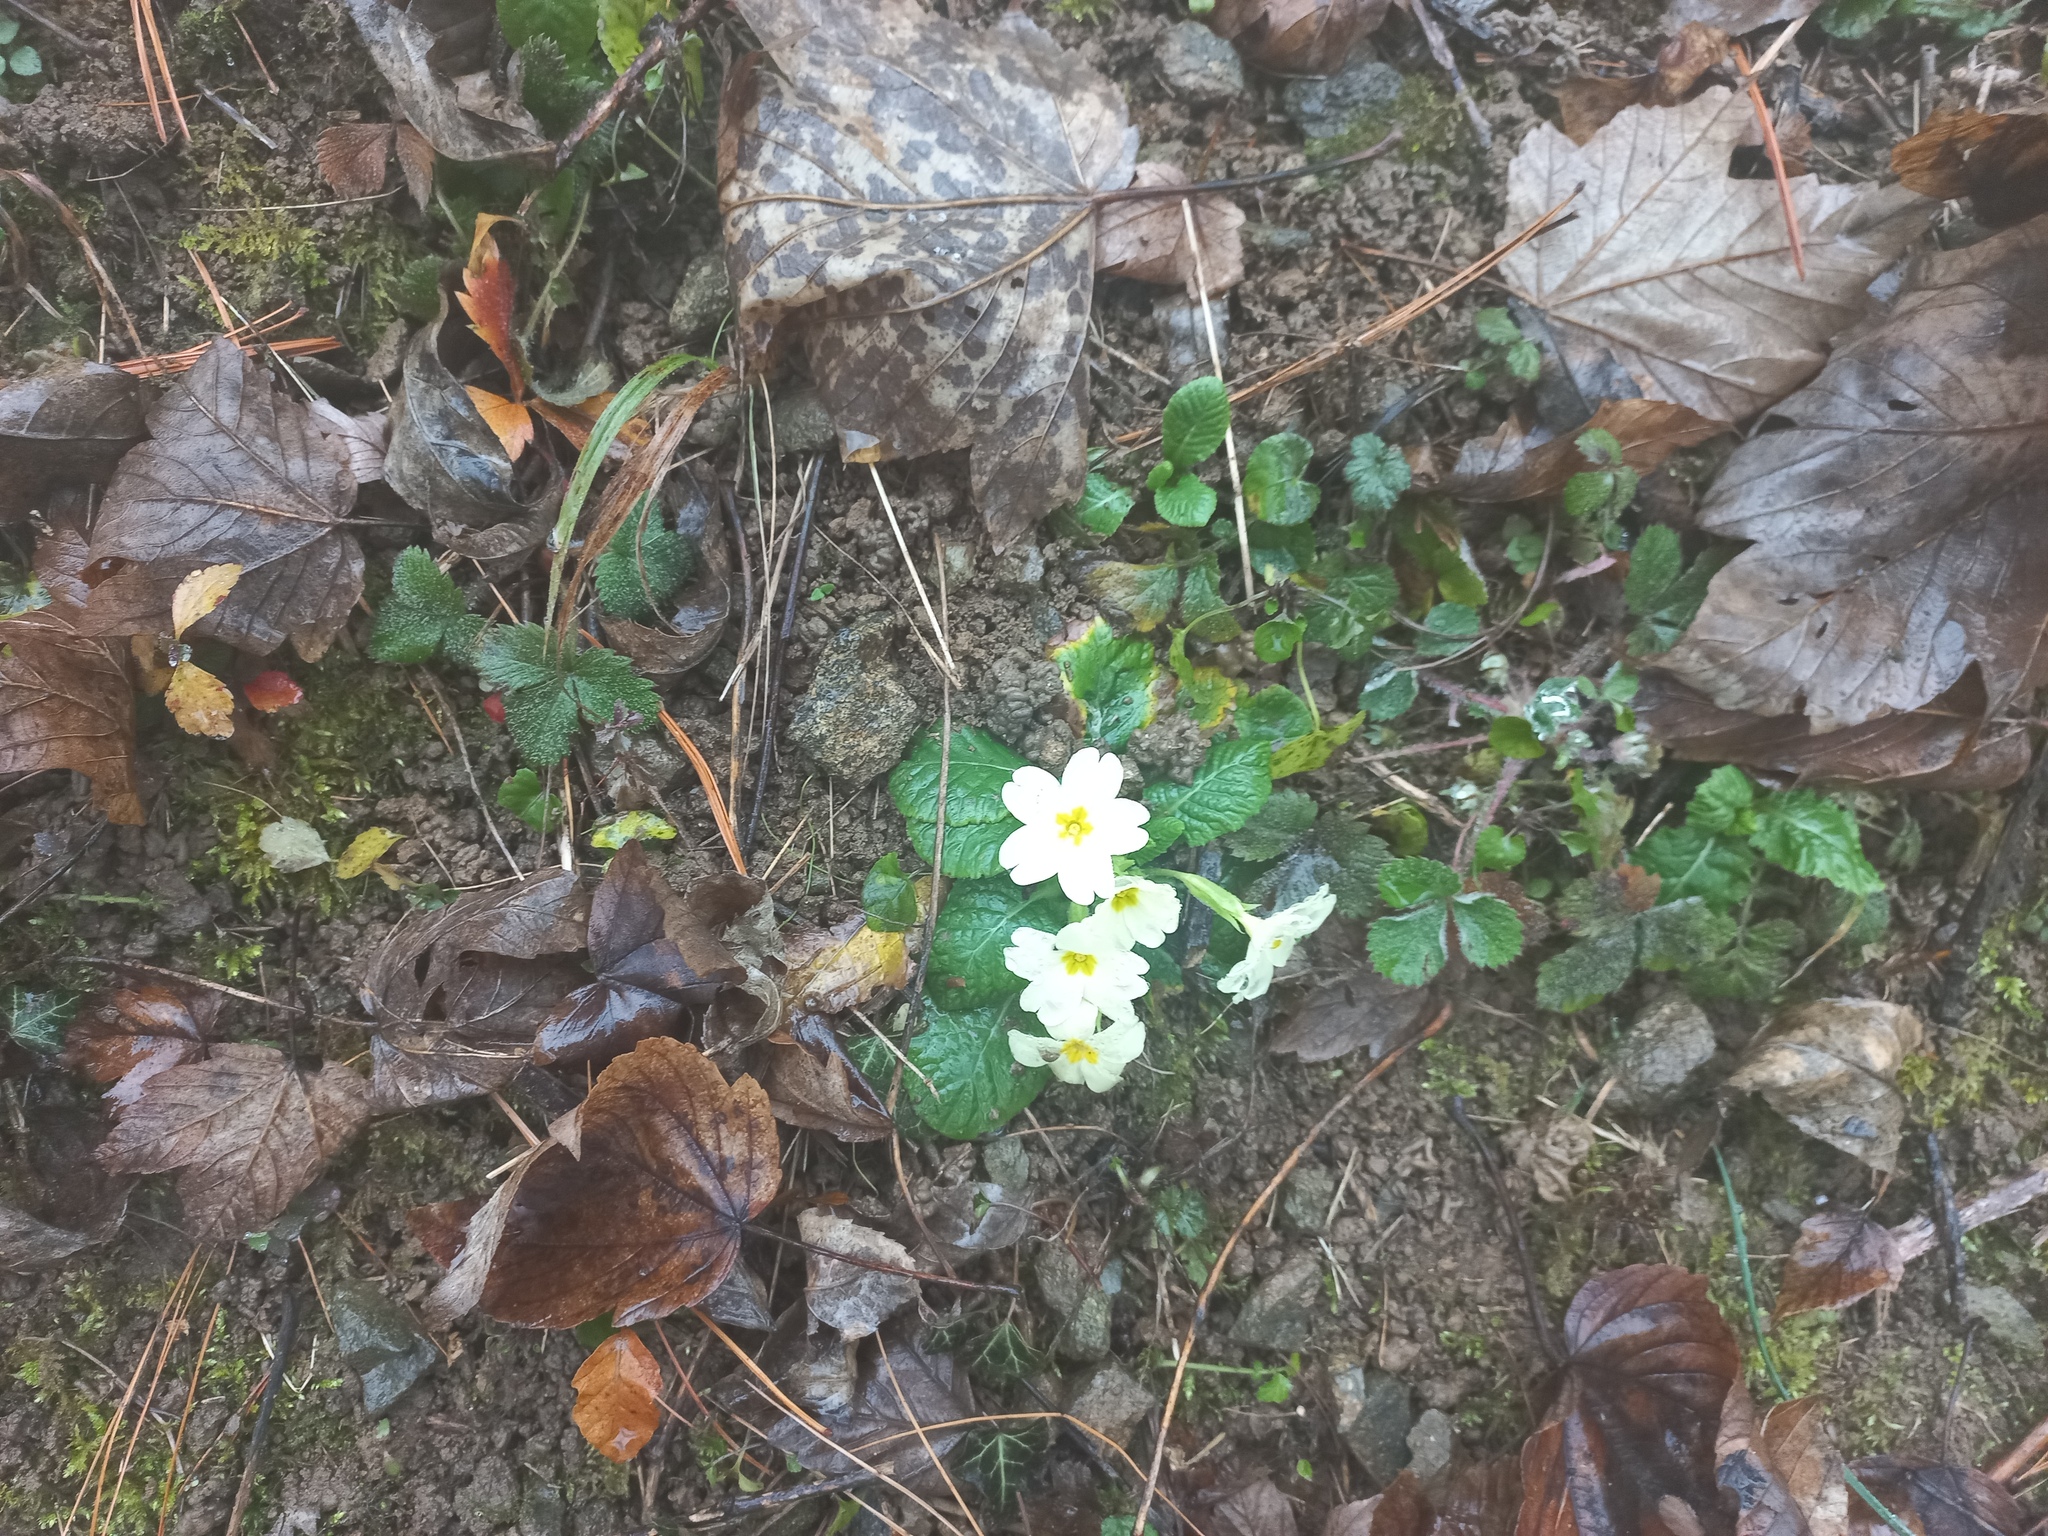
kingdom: Plantae
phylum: Tracheophyta
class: Magnoliopsida
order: Ericales
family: Primulaceae
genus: Primula
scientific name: Primula vulgaris
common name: Primrose
